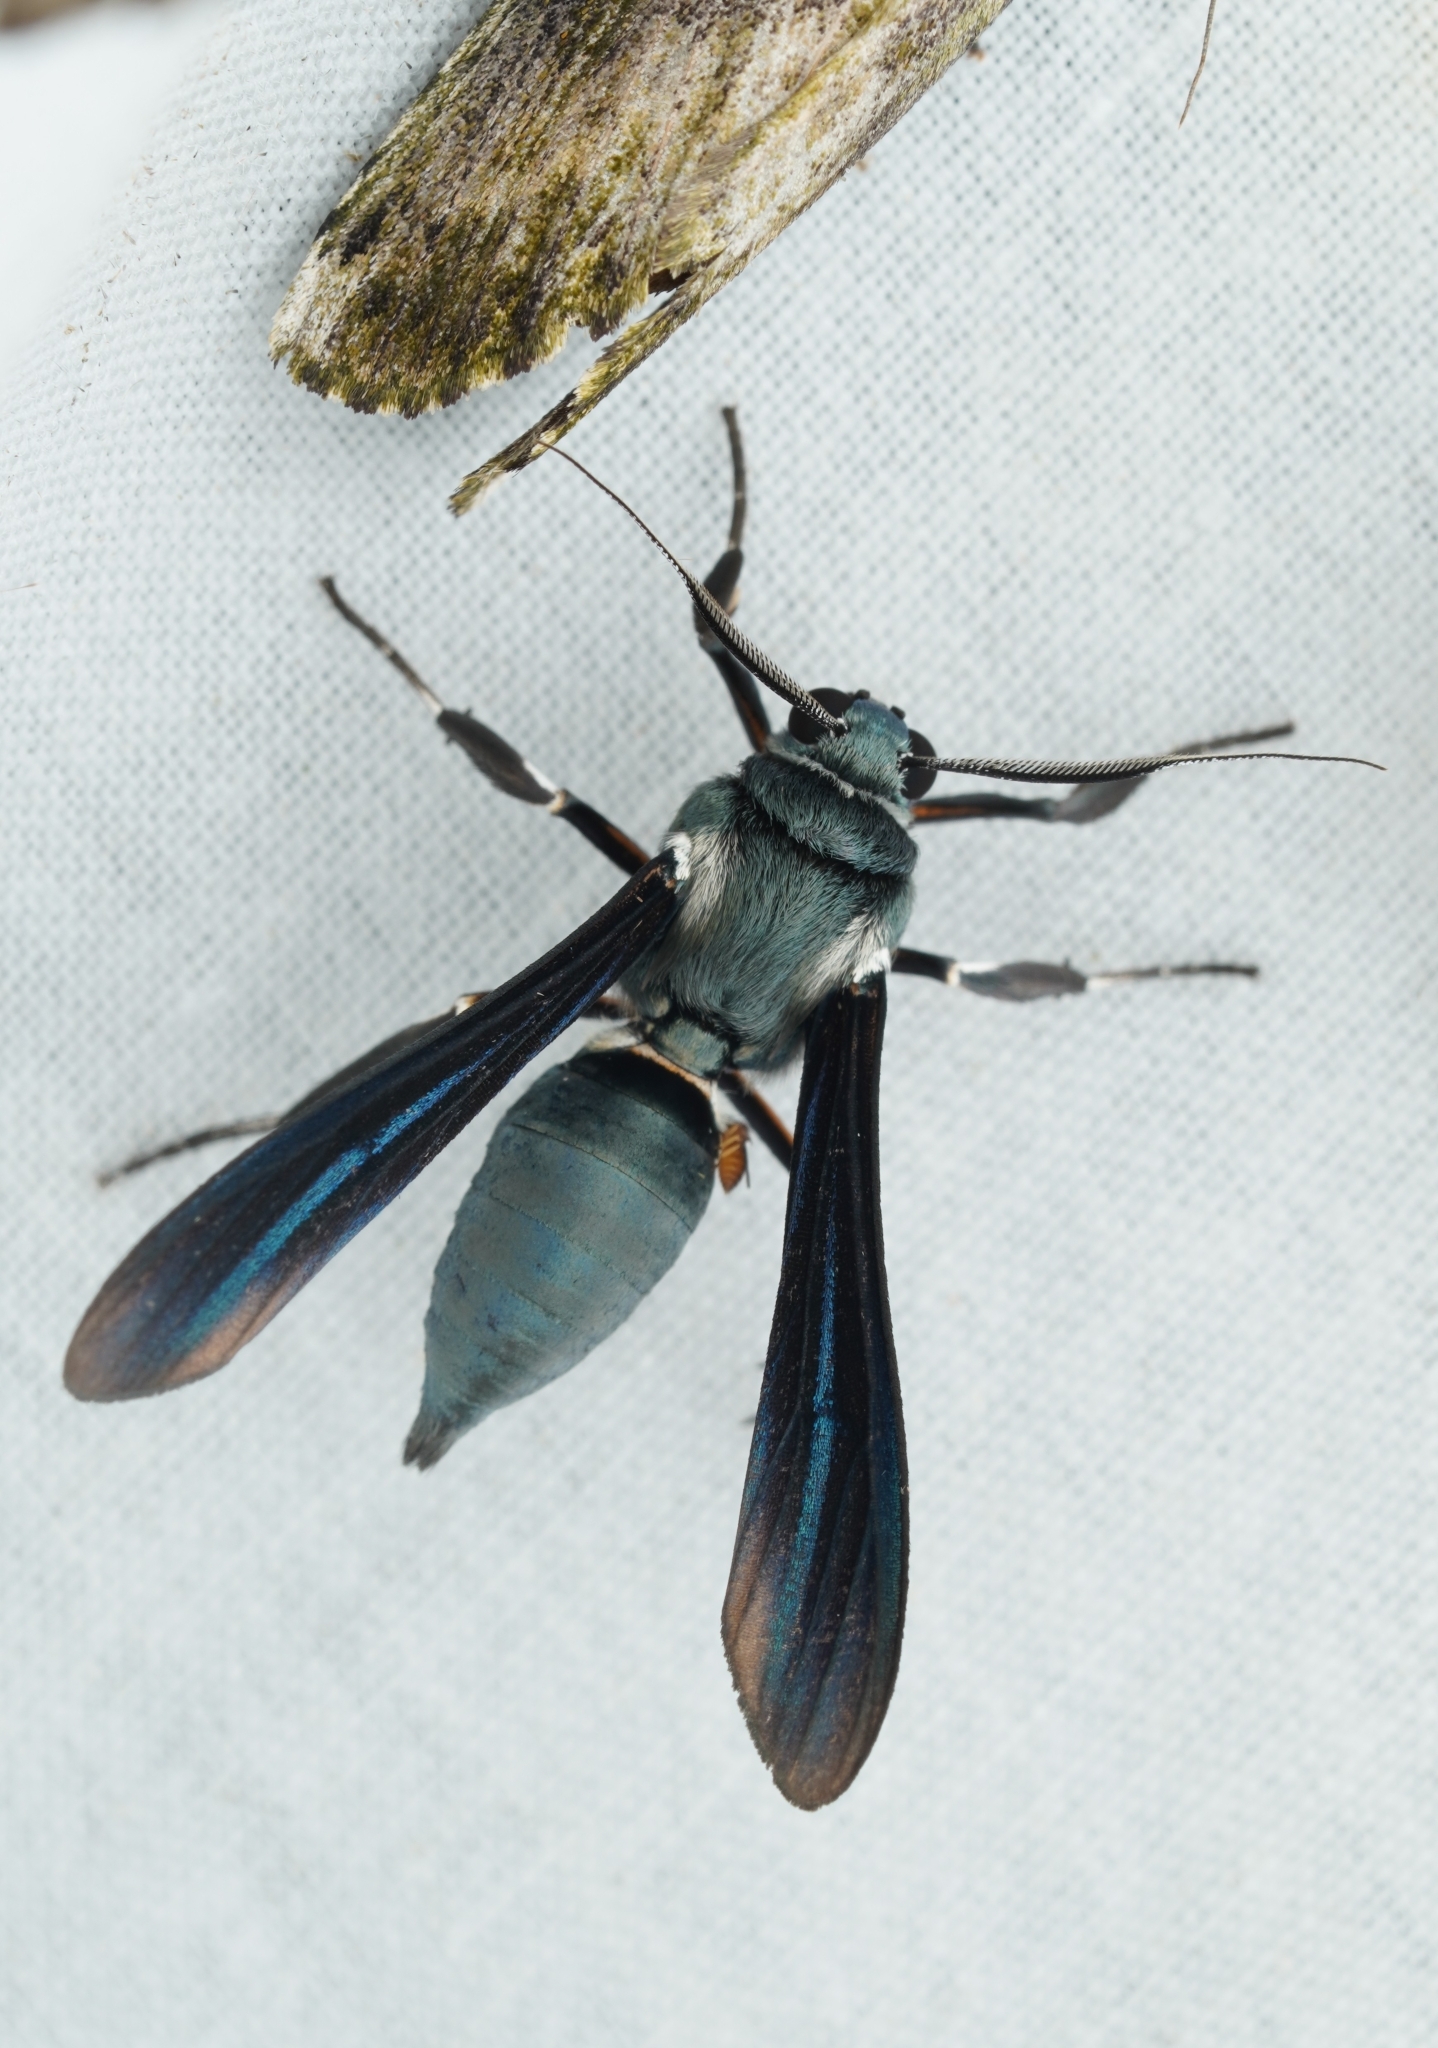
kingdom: Animalia
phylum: Arthropoda
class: Insecta
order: Lepidoptera
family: Erebidae
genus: Pseudopompilia
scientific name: Pseudopompilia mimica
